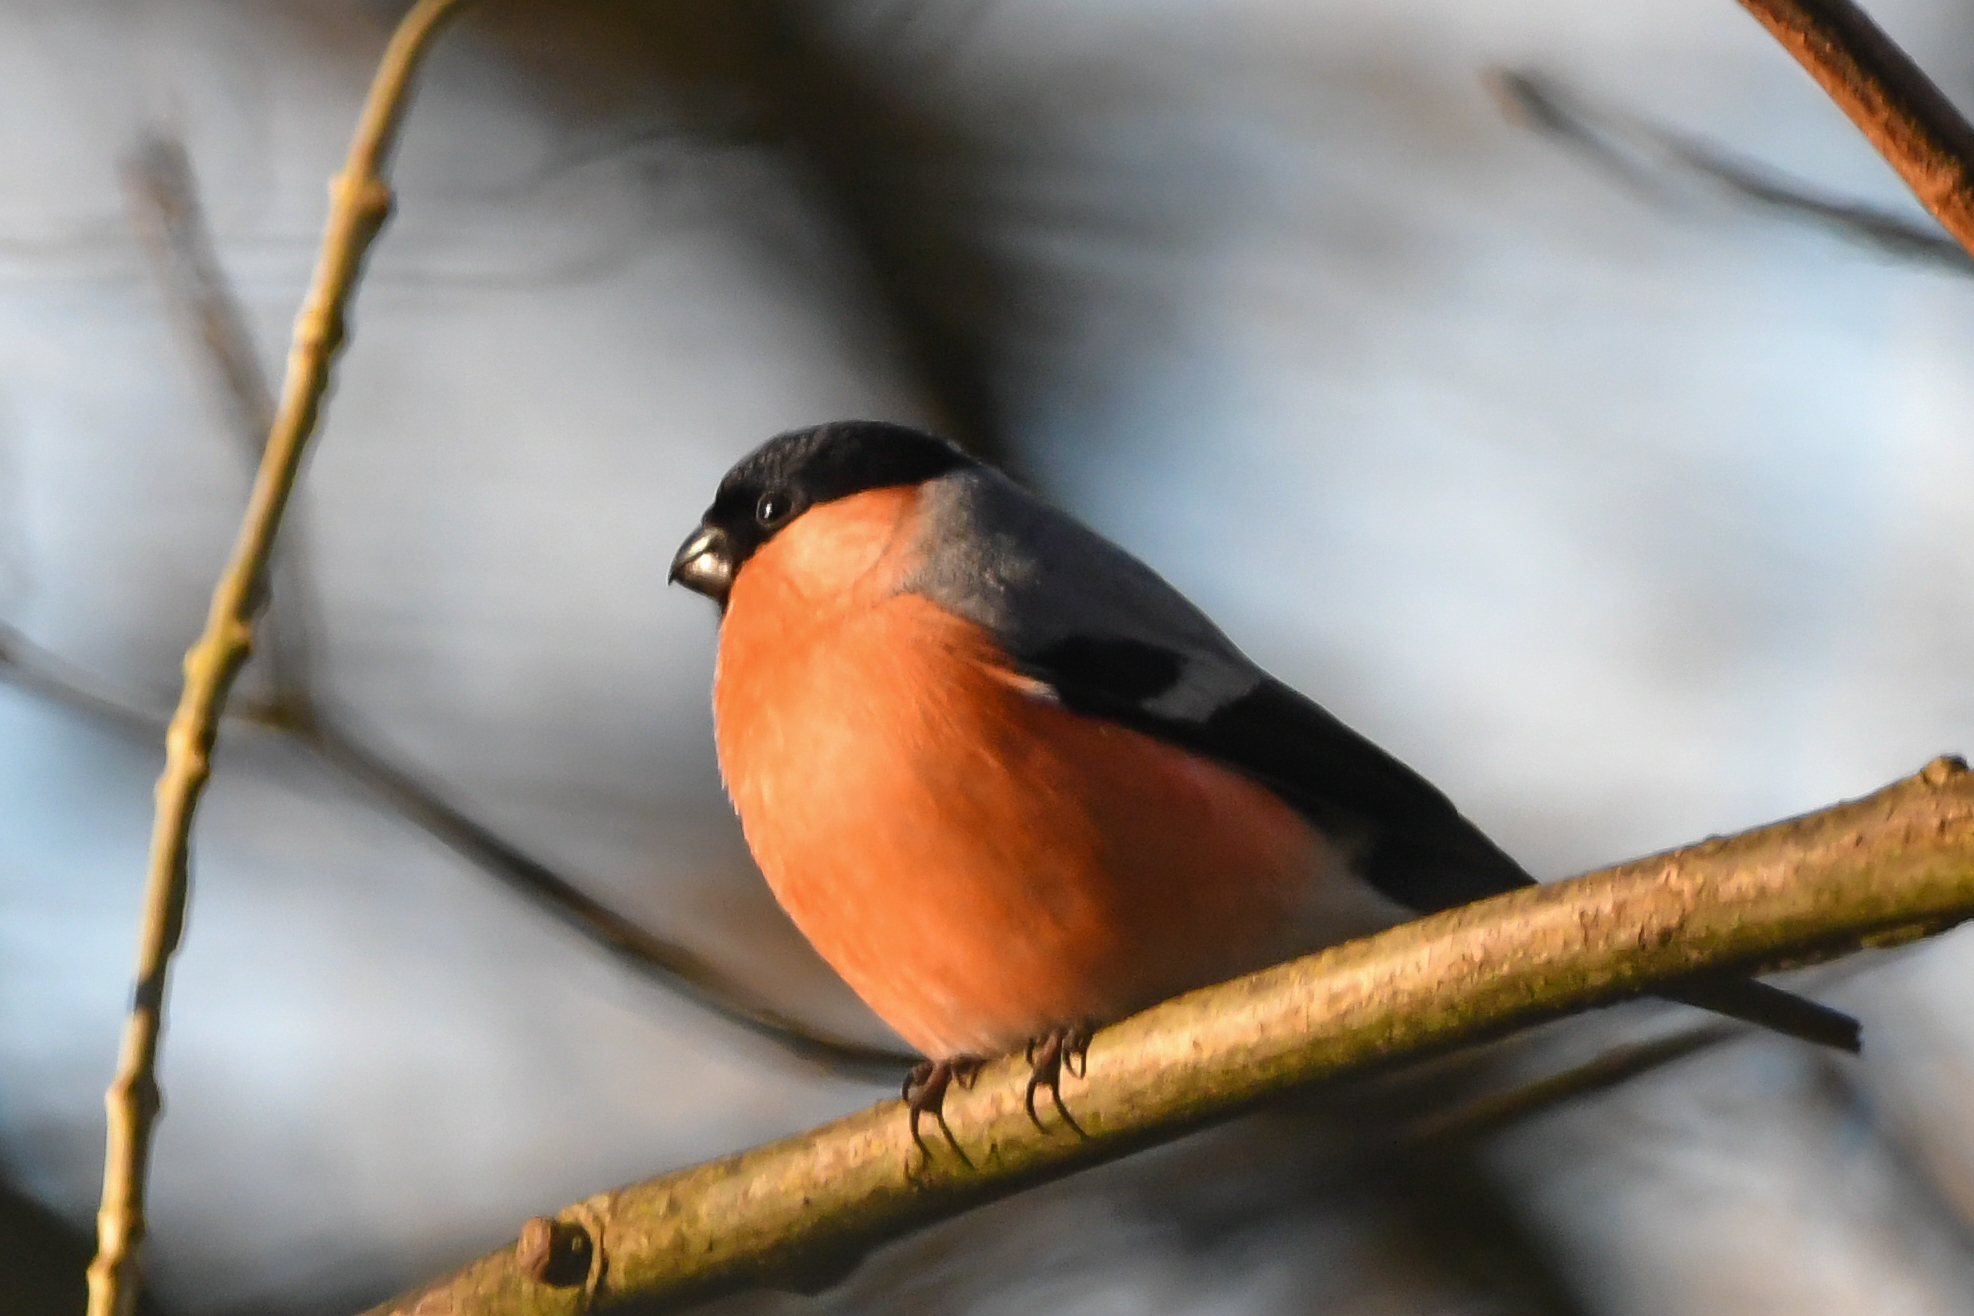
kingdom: Animalia
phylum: Chordata
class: Aves
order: Passeriformes
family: Fringillidae
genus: Pyrrhula
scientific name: Pyrrhula pyrrhula
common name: Eurasian bullfinch
